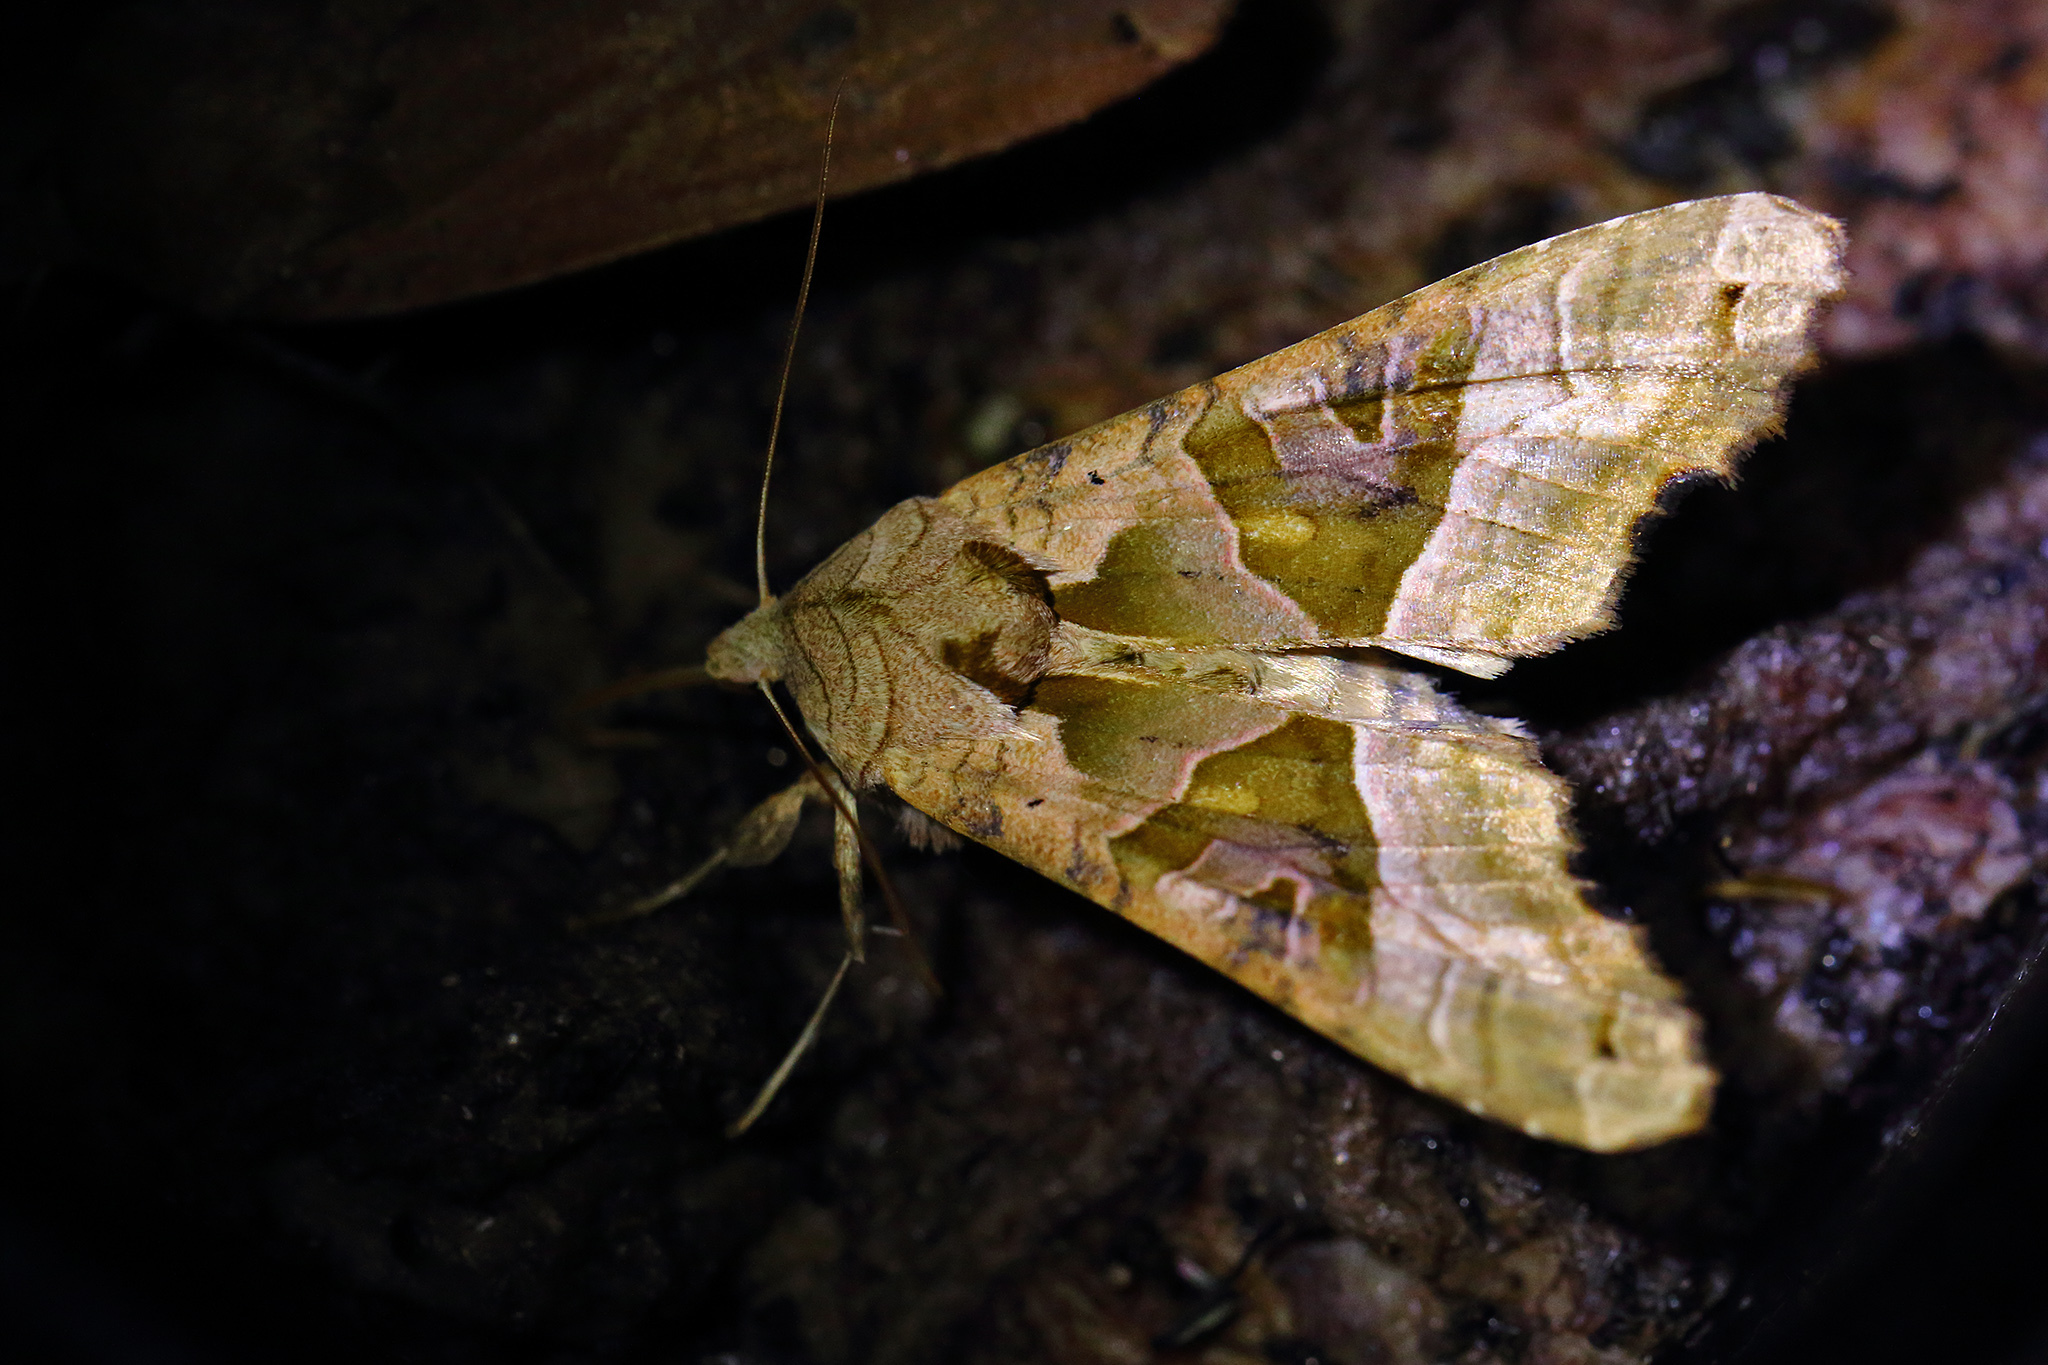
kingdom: Animalia
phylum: Arthropoda
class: Insecta
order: Lepidoptera
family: Noctuidae
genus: Phlogophora
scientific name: Phlogophora meticulosa
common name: Angle shades
